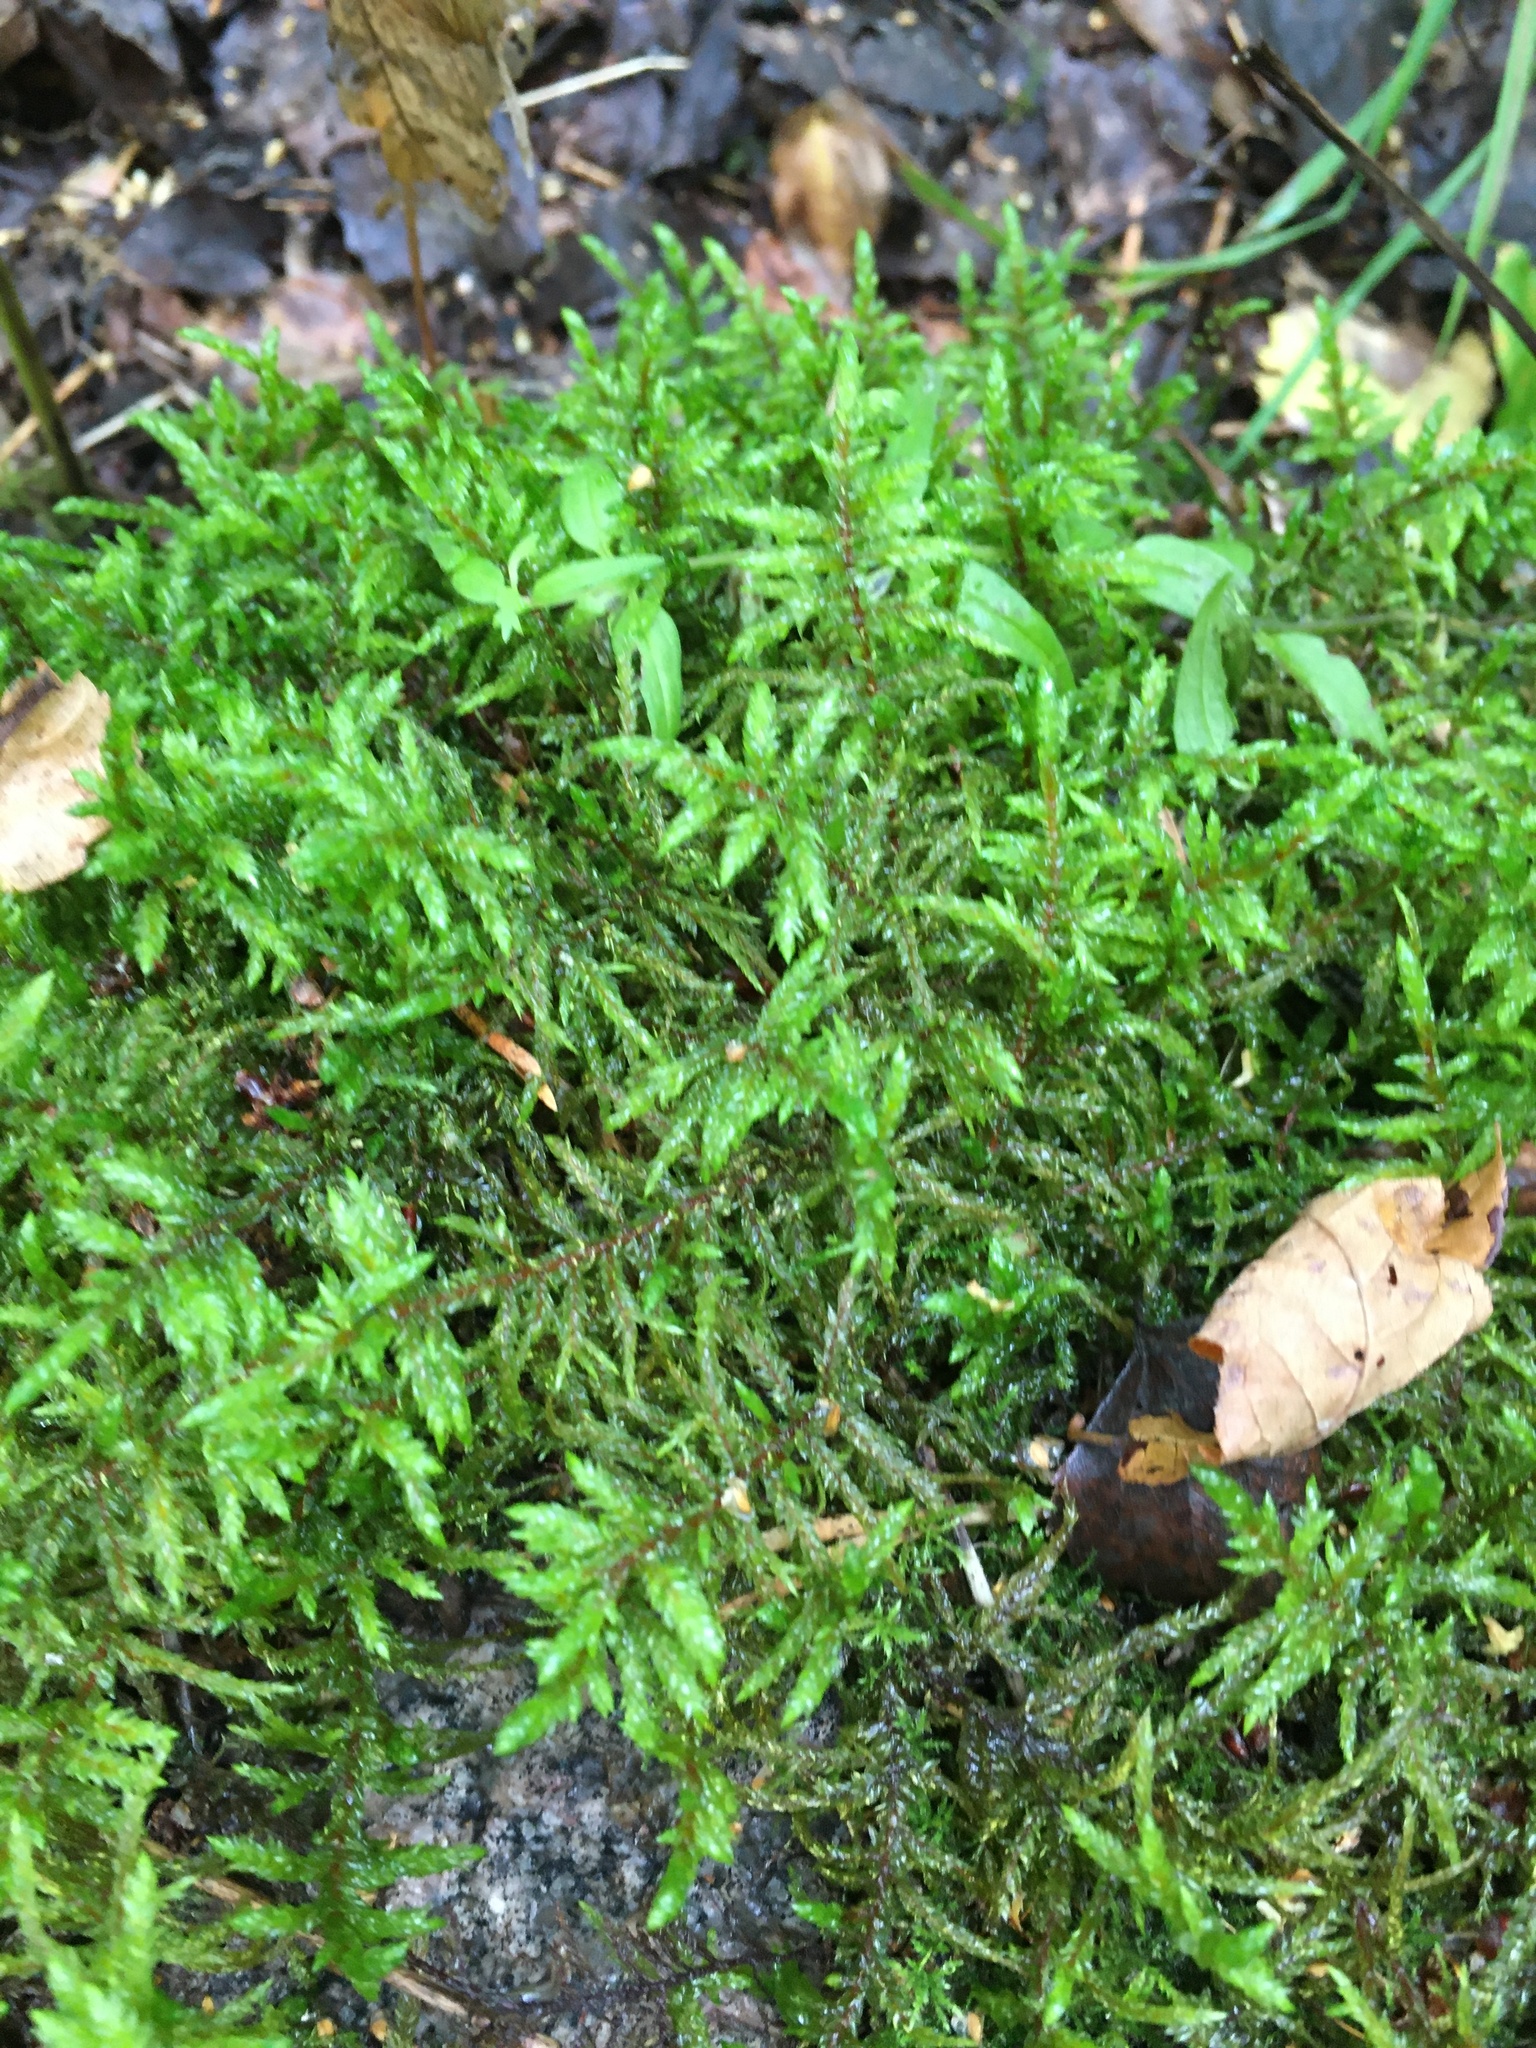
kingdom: Plantae
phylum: Bryophyta
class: Bryopsida
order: Hypnales
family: Hylocomiaceae
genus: Pleurozium
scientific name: Pleurozium schreberi
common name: Red-stemmed feather moss
